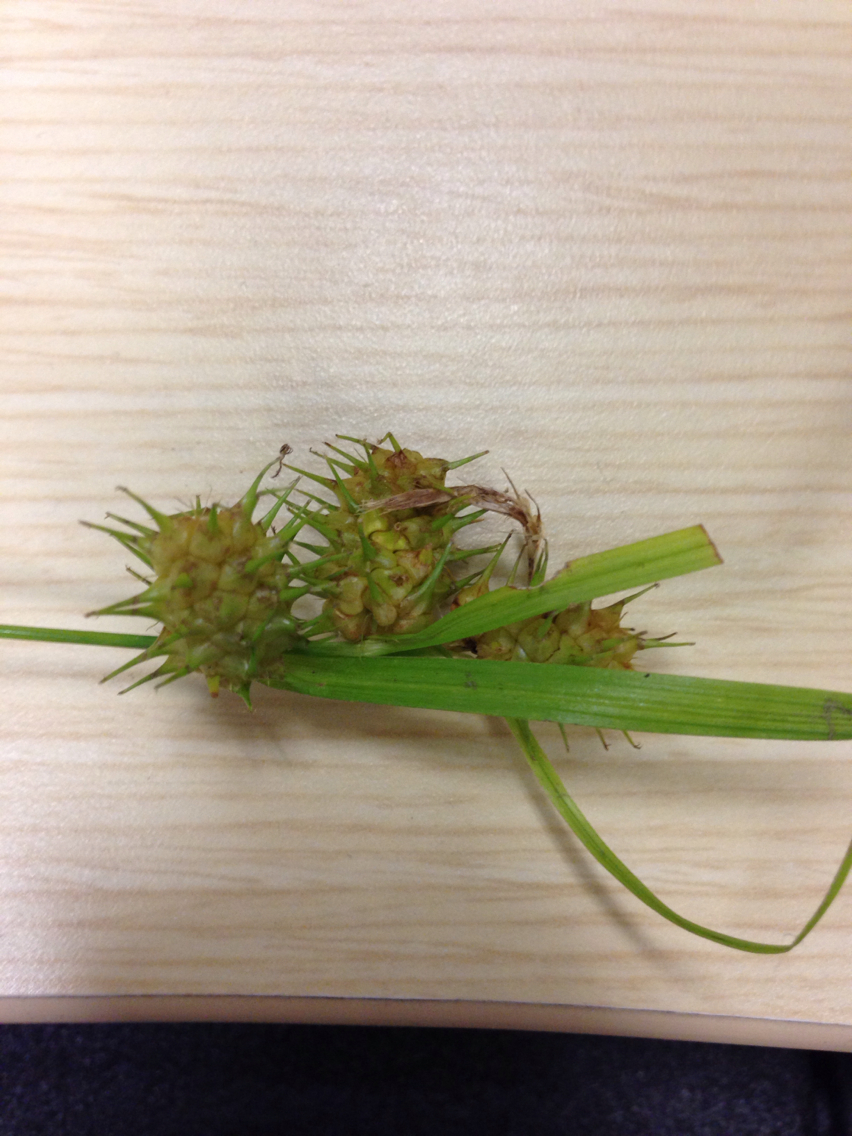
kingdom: Plantae
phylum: Tracheophyta
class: Liliopsida
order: Poales
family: Cyperaceae
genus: Carex
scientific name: Carex lurida
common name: Sallow sedge
